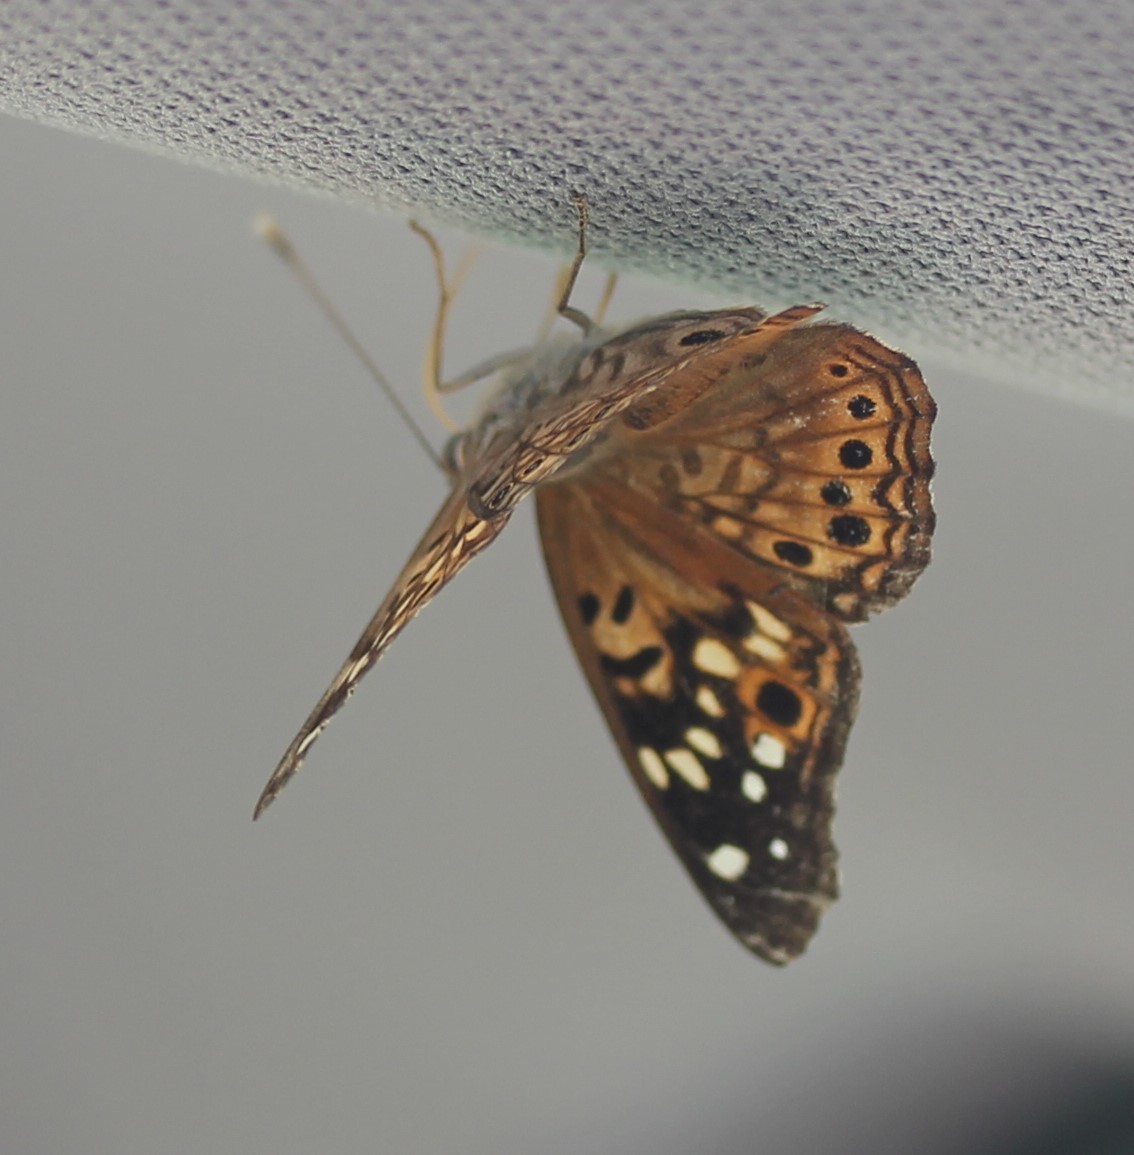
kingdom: Animalia
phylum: Arthropoda
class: Insecta
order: Lepidoptera
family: Nymphalidae
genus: Asterocampa
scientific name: Asterocampa celtis
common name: Hackberry emperor
